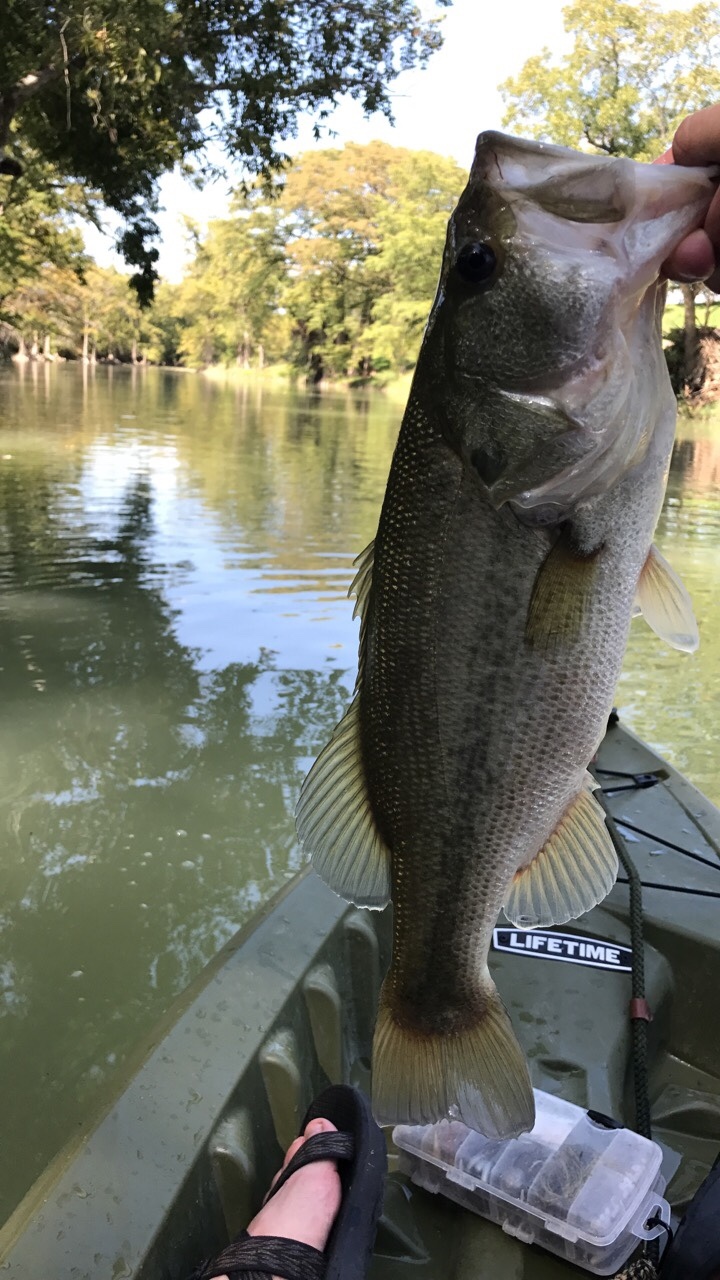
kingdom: Animalia
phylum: Chordata
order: Perciformes
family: Centrarchidae
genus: Micropterus
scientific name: Micropterus
